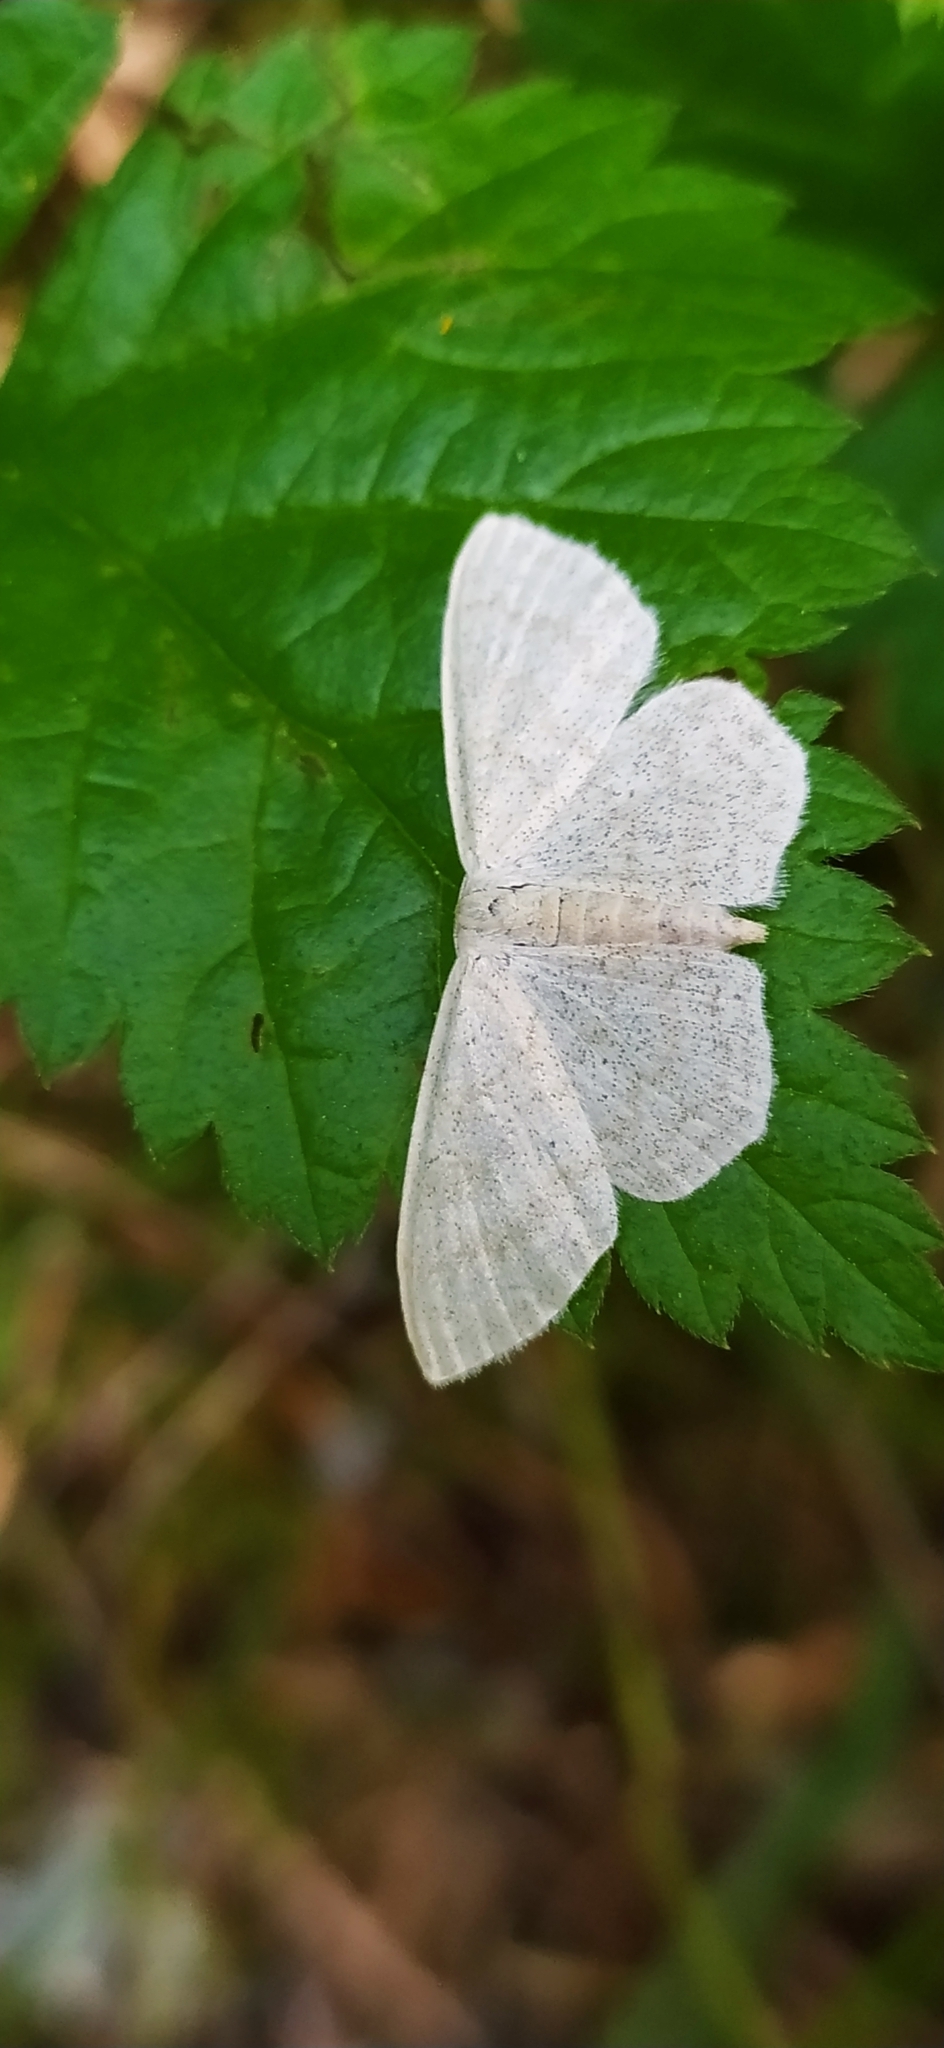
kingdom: Animalia
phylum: Arthropoda
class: Insecta
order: Lepidoptera
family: Geometridae
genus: Scopula
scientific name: Scopula floslactata
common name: Cream wave
